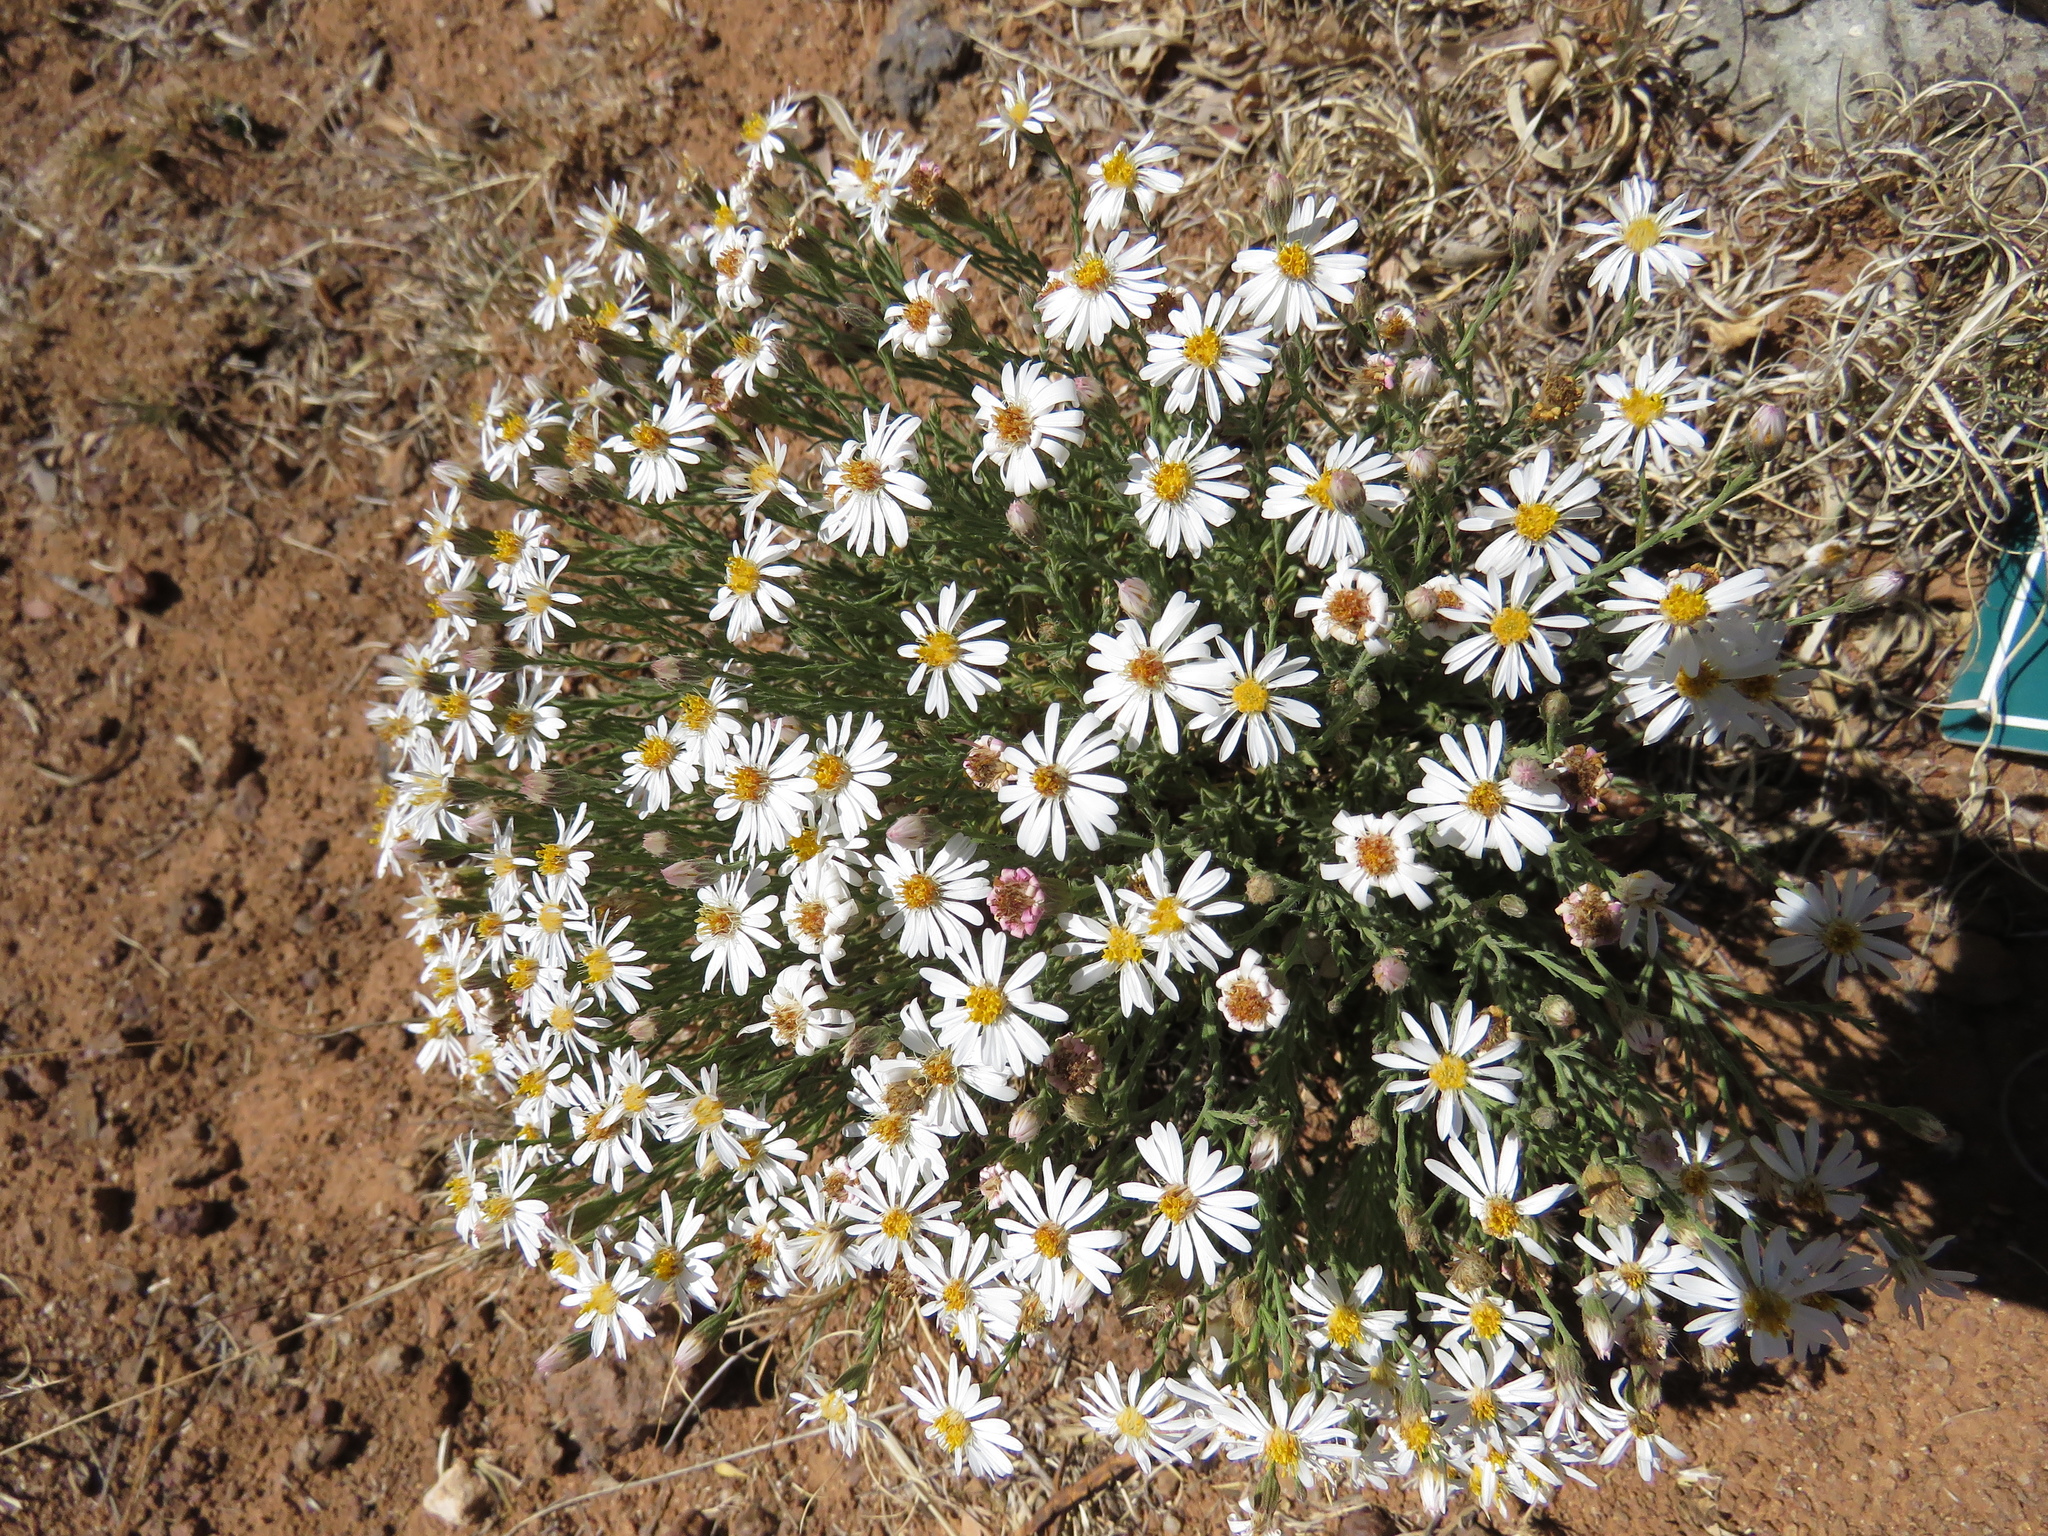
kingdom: Plantae
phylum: Tracheophyta
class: Magnoliopsida
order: Asterales
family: Asteraceae
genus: Chaetopappa
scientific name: Chaetopappa ericoides
